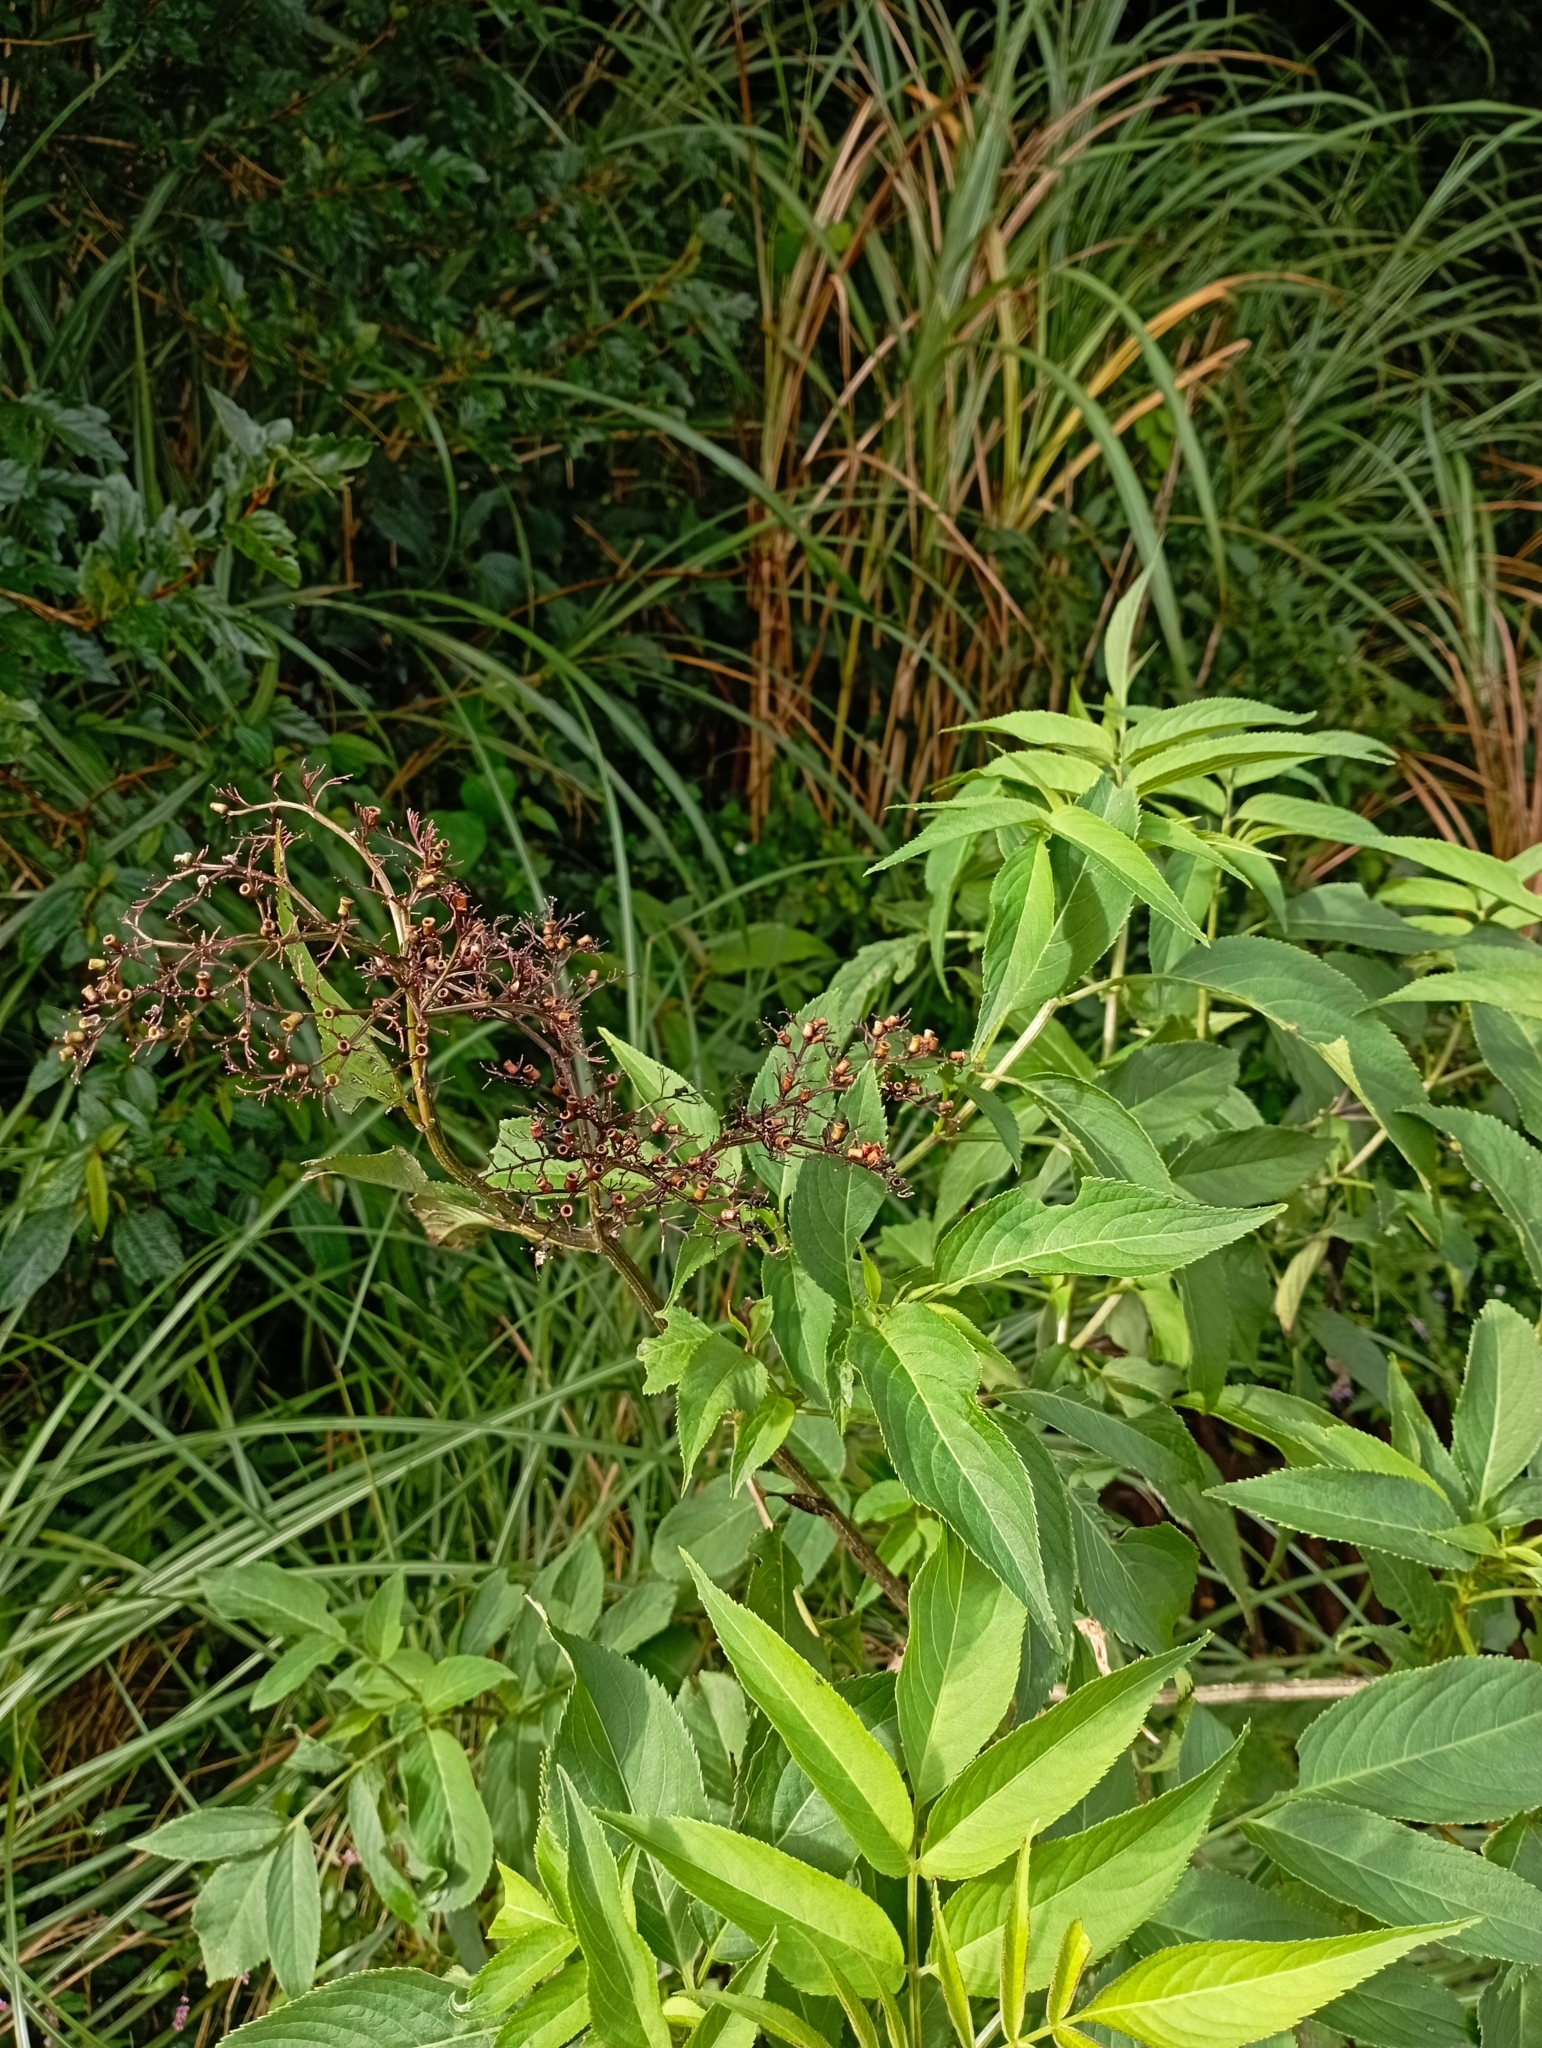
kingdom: Plantae
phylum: Tracheophyta
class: Magnoliopsida
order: Dipsacales
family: Viburnaceae
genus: Sambucus
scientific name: Sambucus javanica
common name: Chinese elder
